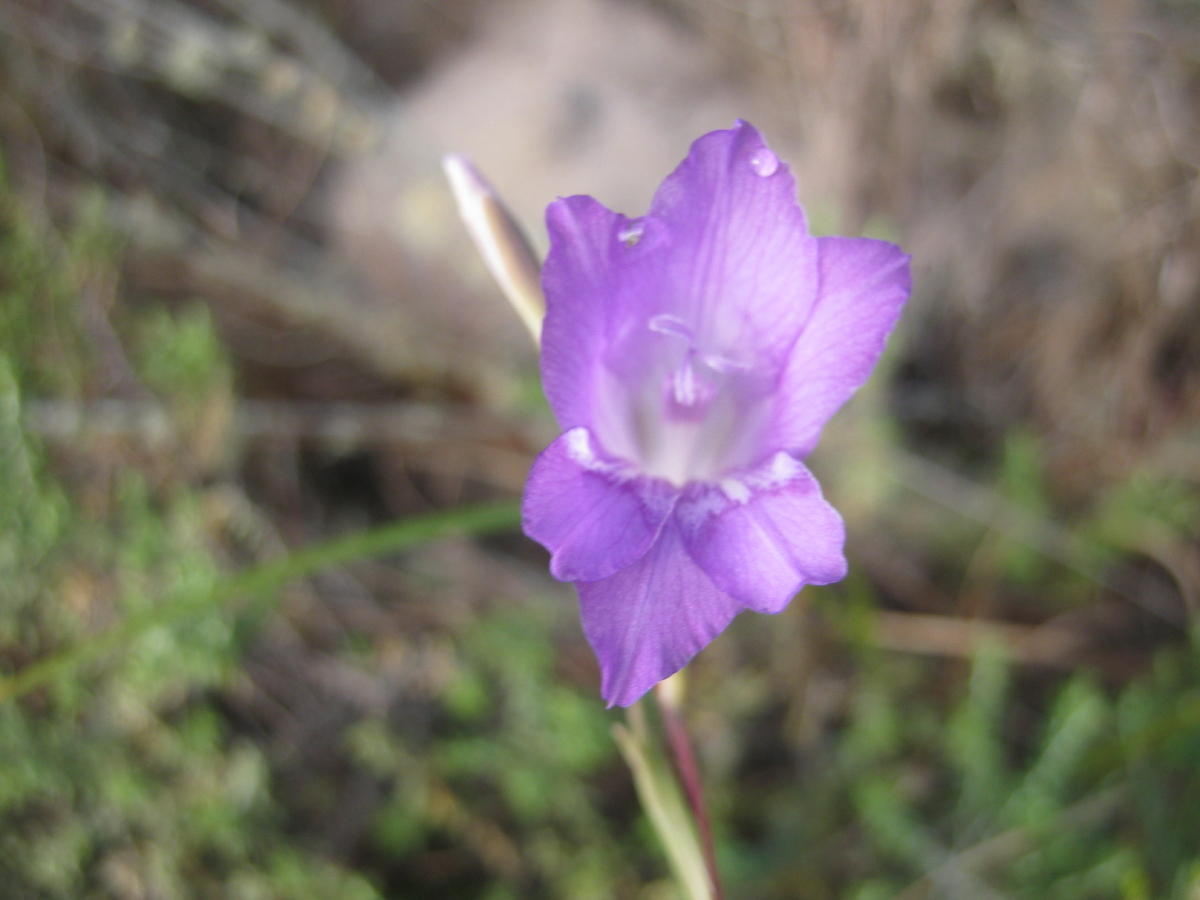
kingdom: Plantae
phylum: Tracheophyta
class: Liliopsida
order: Asparagales
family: Iridaceae
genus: Gladiolus
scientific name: Gladiolus carinatus
